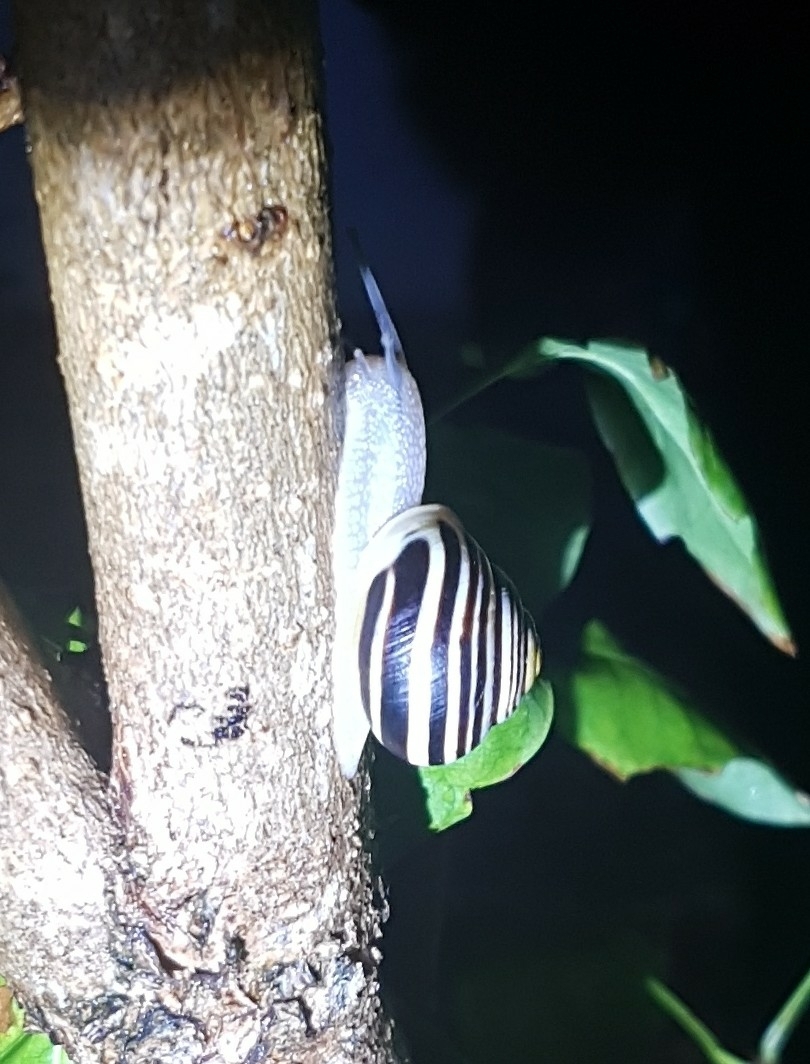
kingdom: Animalia
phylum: Mollusca
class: Gastropoda
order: Stylommatophora
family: Helicidae
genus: Cepaea
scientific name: Cepaea hortensis
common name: White-lip gardensnail
